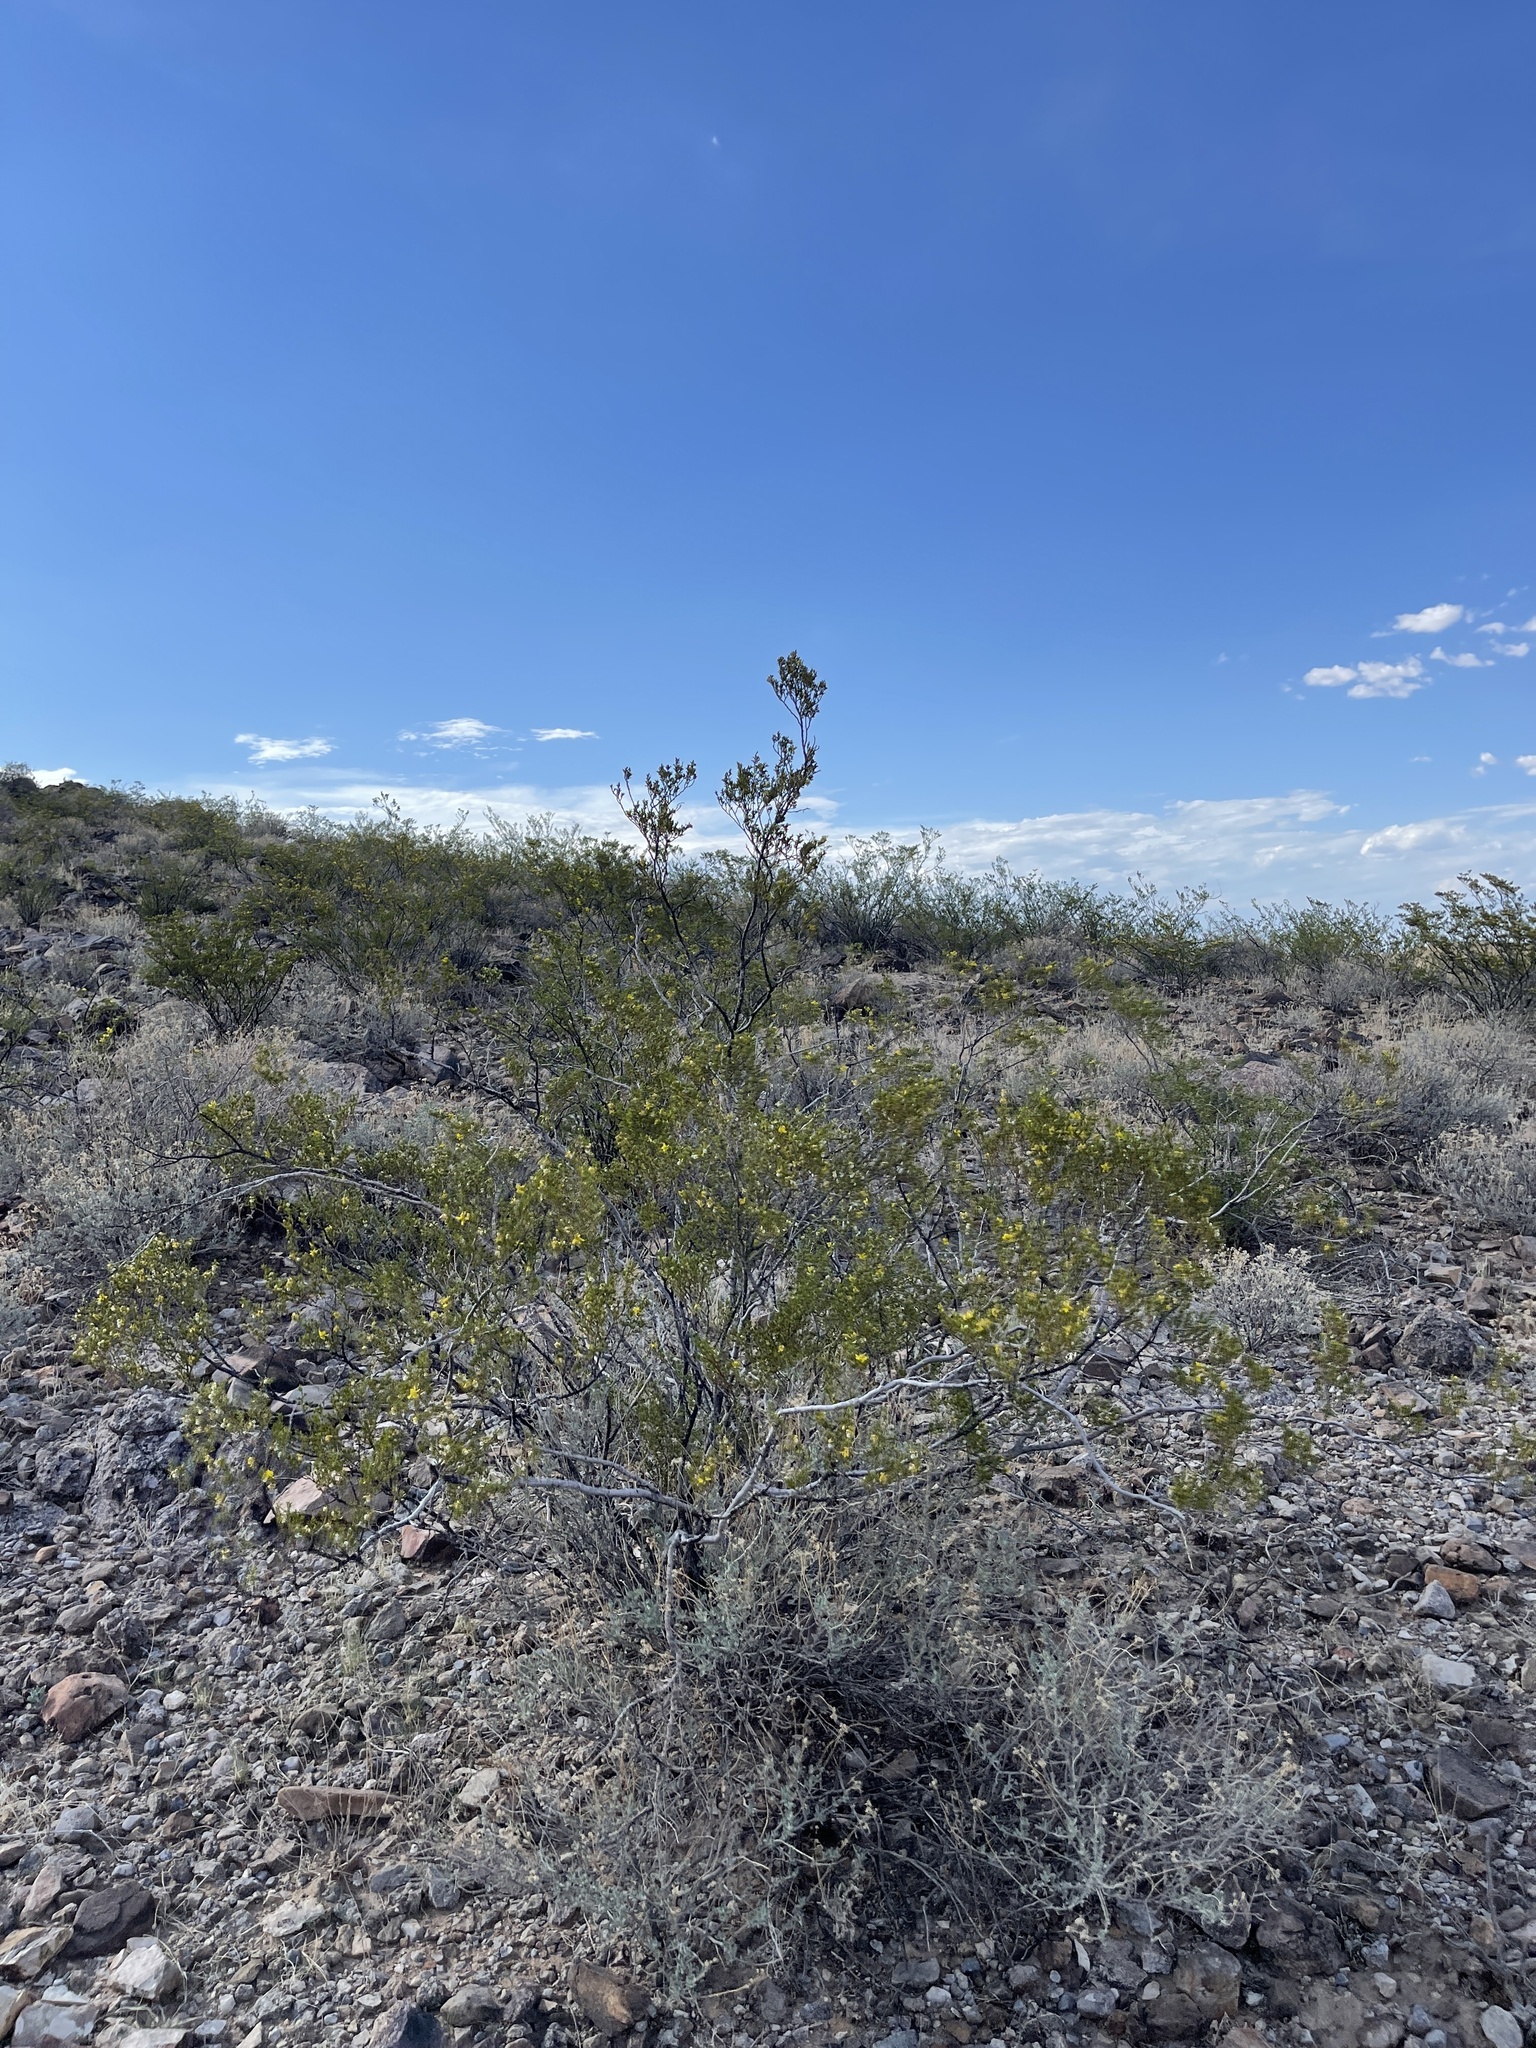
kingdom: Plantae
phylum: Tracheophyta
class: Magnoliopsida
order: Zygophyllales
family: Zygophyllaceae
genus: Larrea
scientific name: Larrea tridentata
